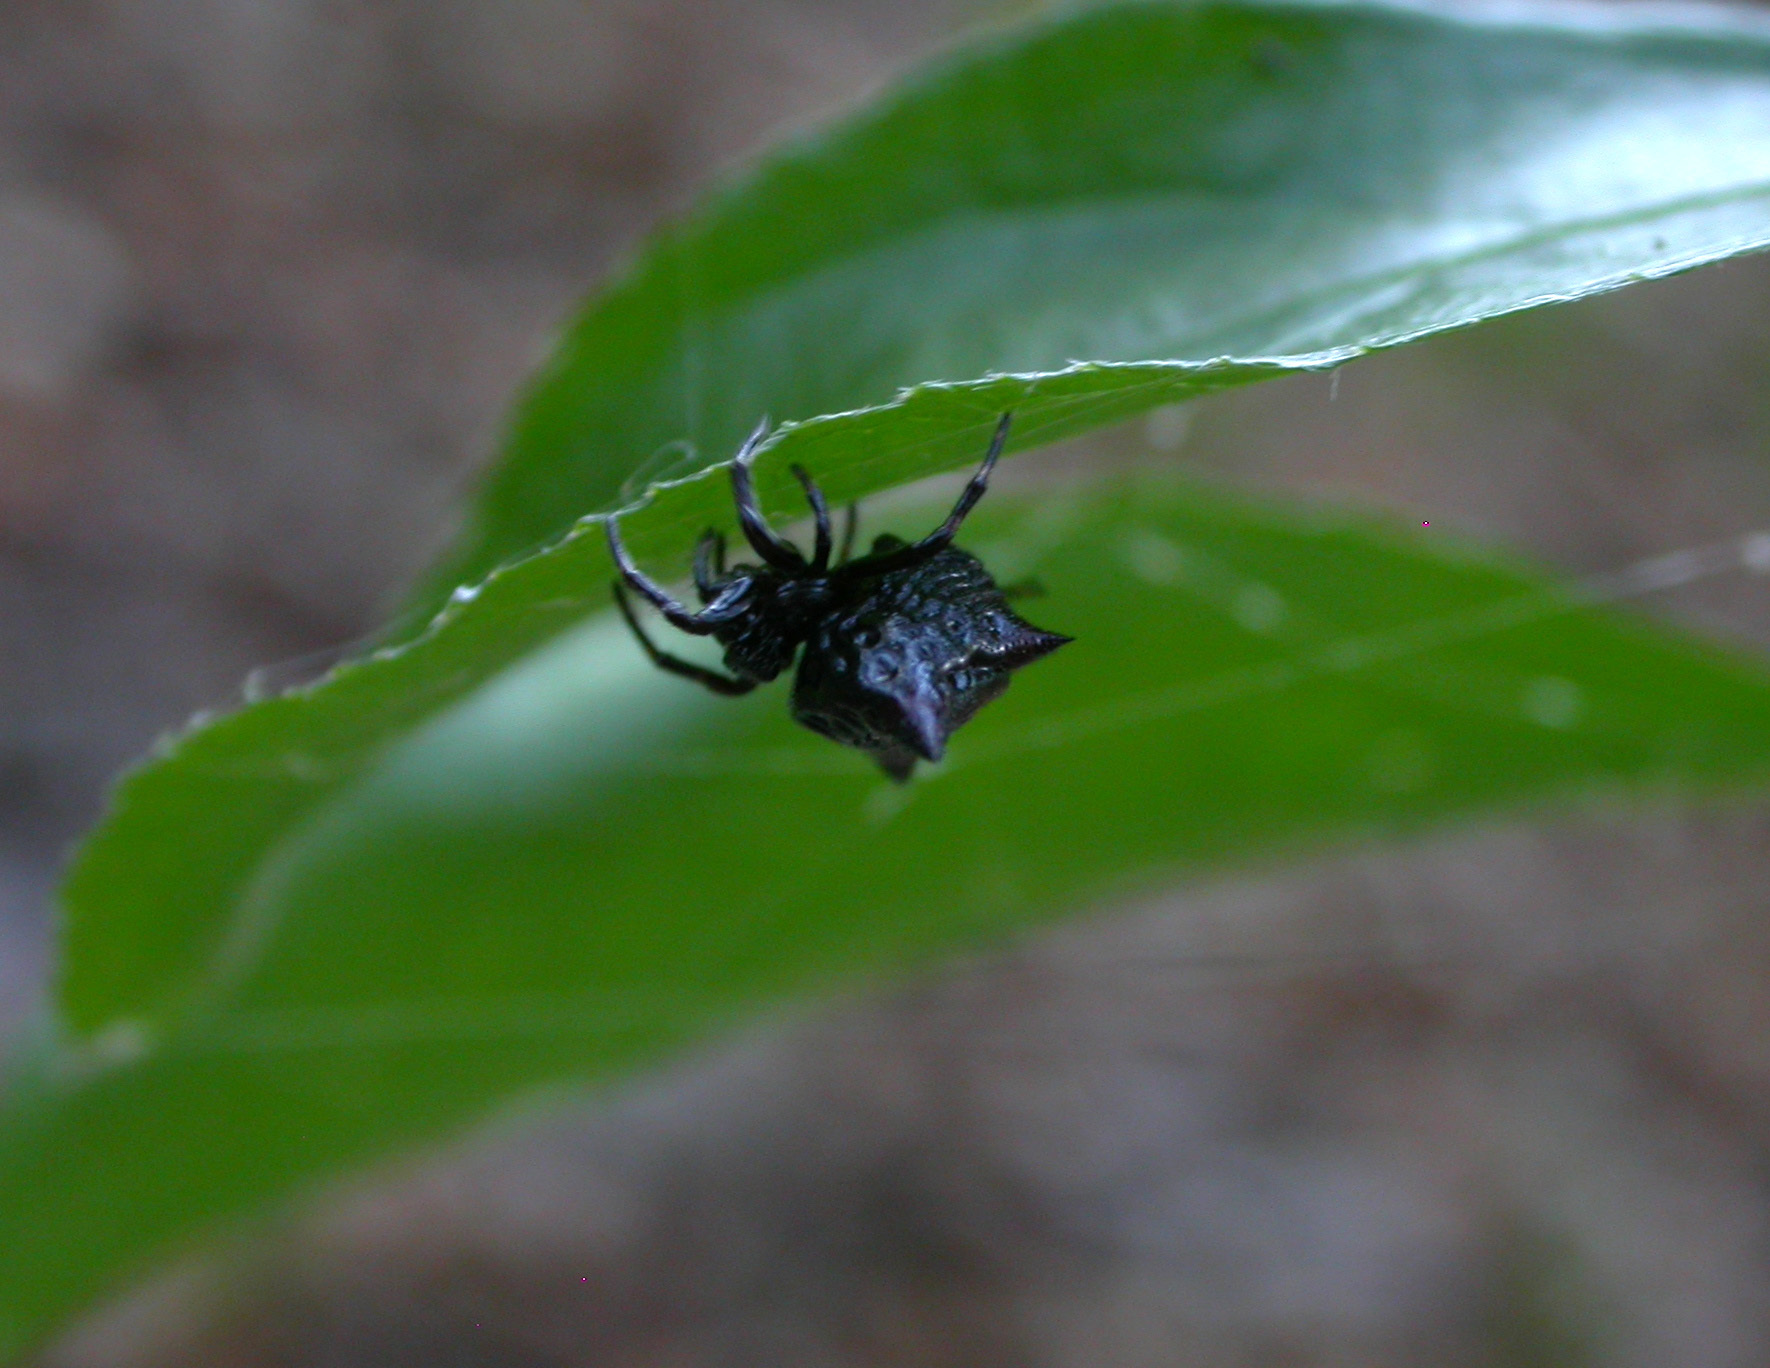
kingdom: Animalia
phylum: Arthropoda
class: Arachnida
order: Araneae
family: Araneidae
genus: Gasteracantha
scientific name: Gasteracantha cancriformis
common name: Orb weavers
